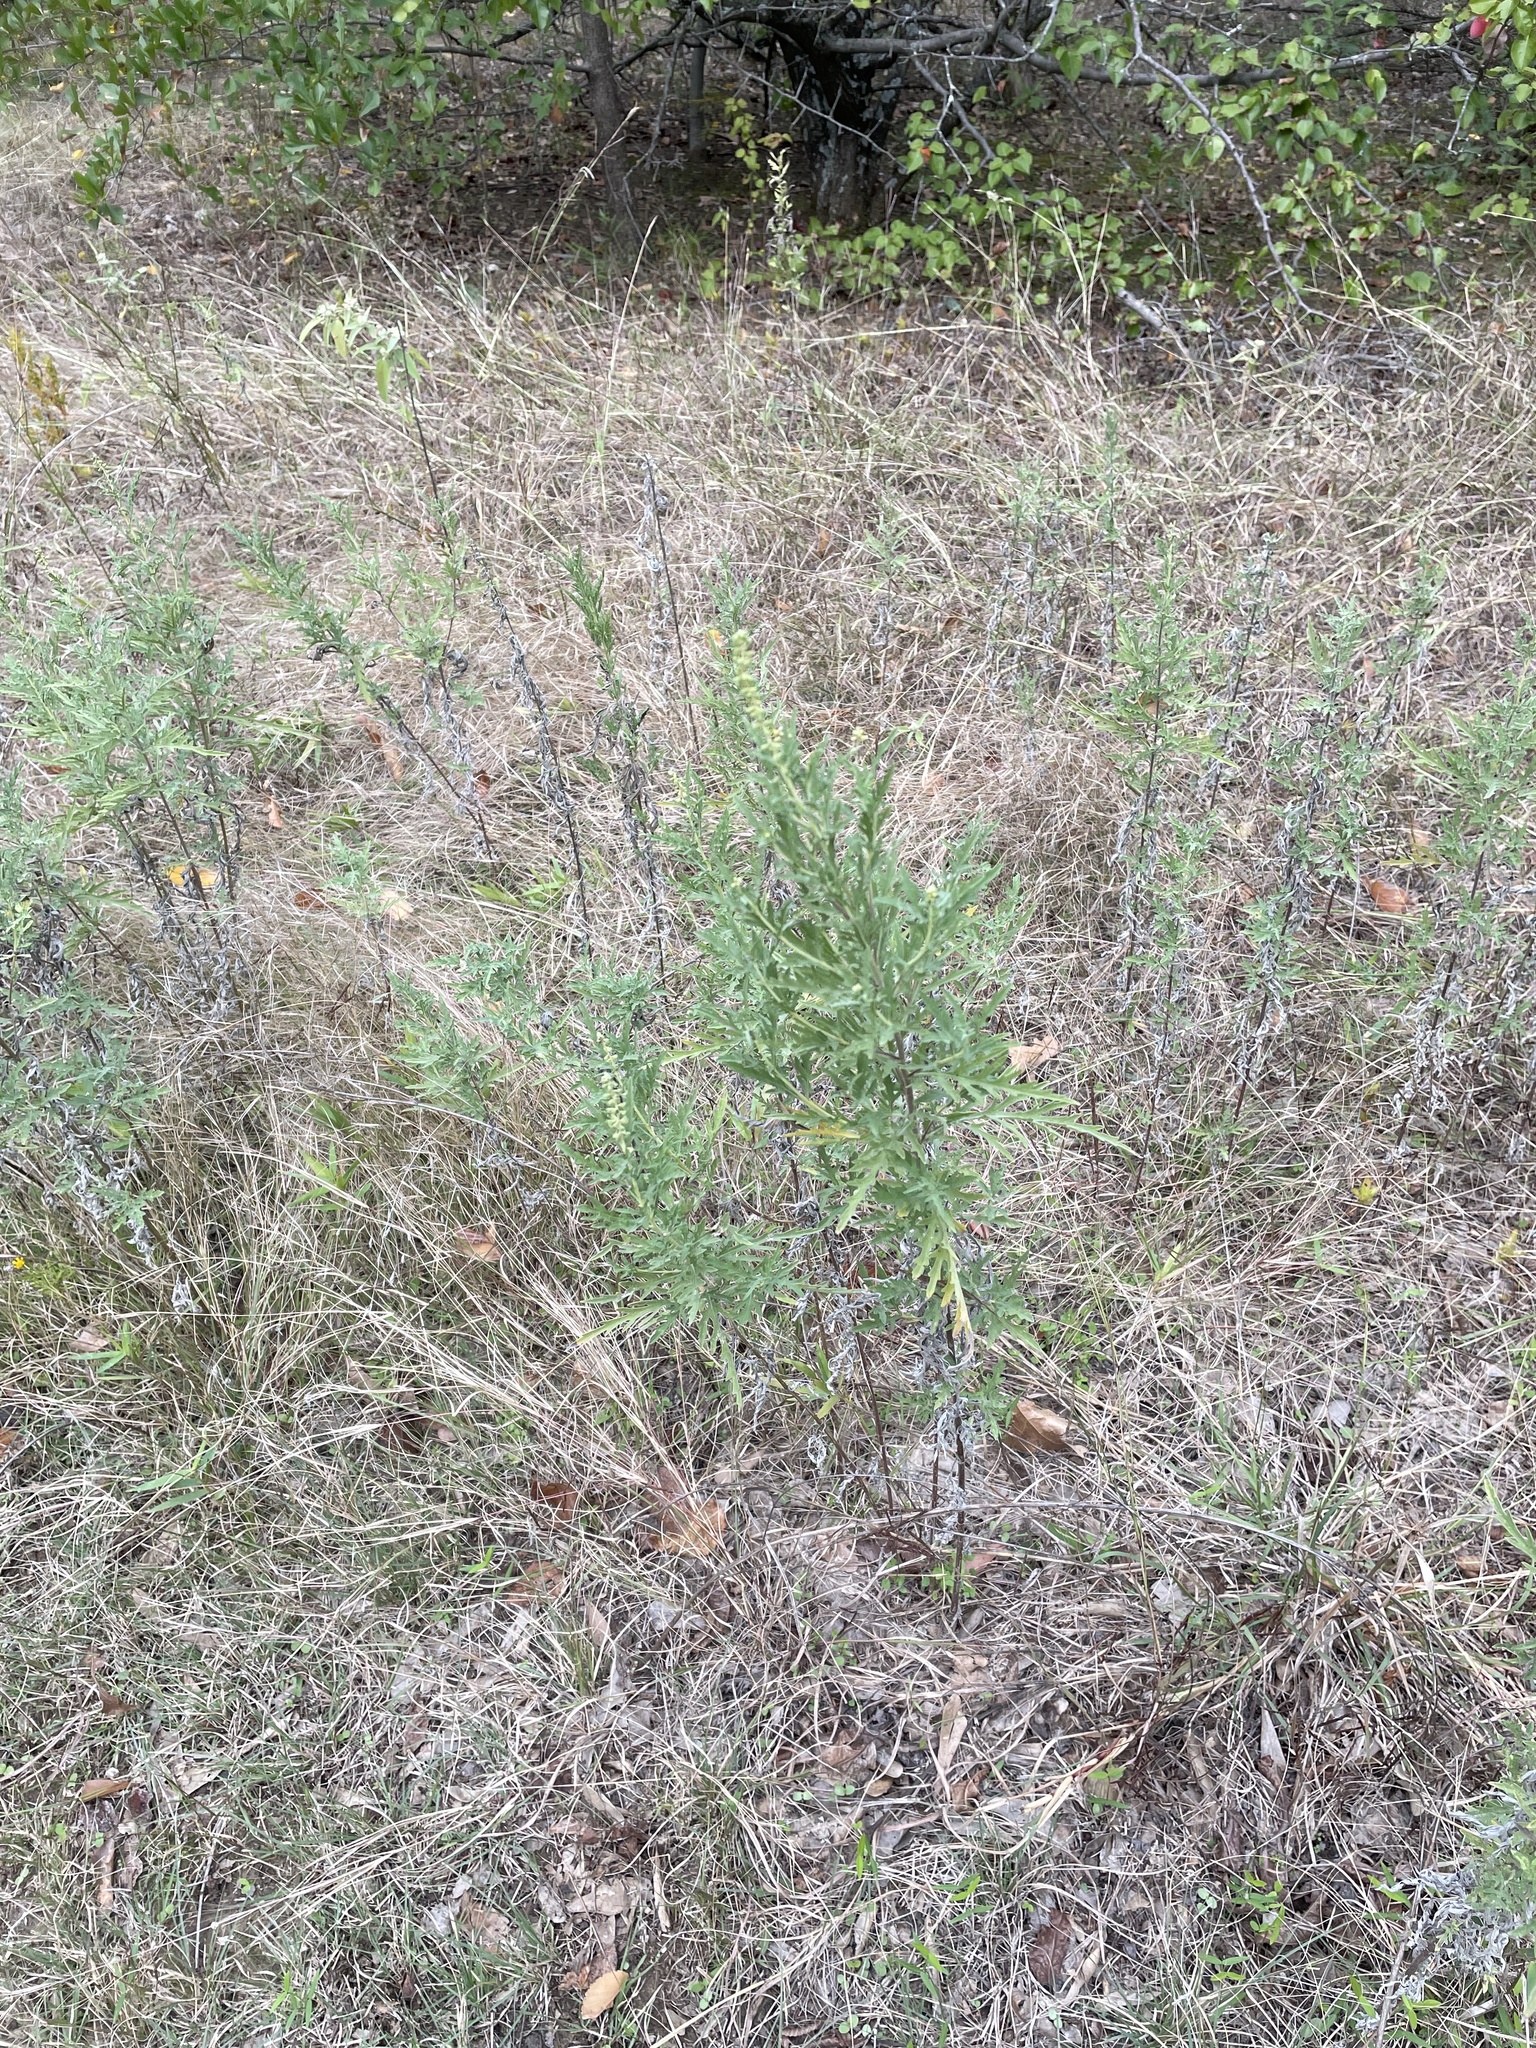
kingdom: Plantae
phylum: Tracheophyta
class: Magnoliopsida
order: Asterales
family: Asteraceae
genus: Ambrosia
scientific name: Ambrosia psilostachya
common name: Perennial ragweed
